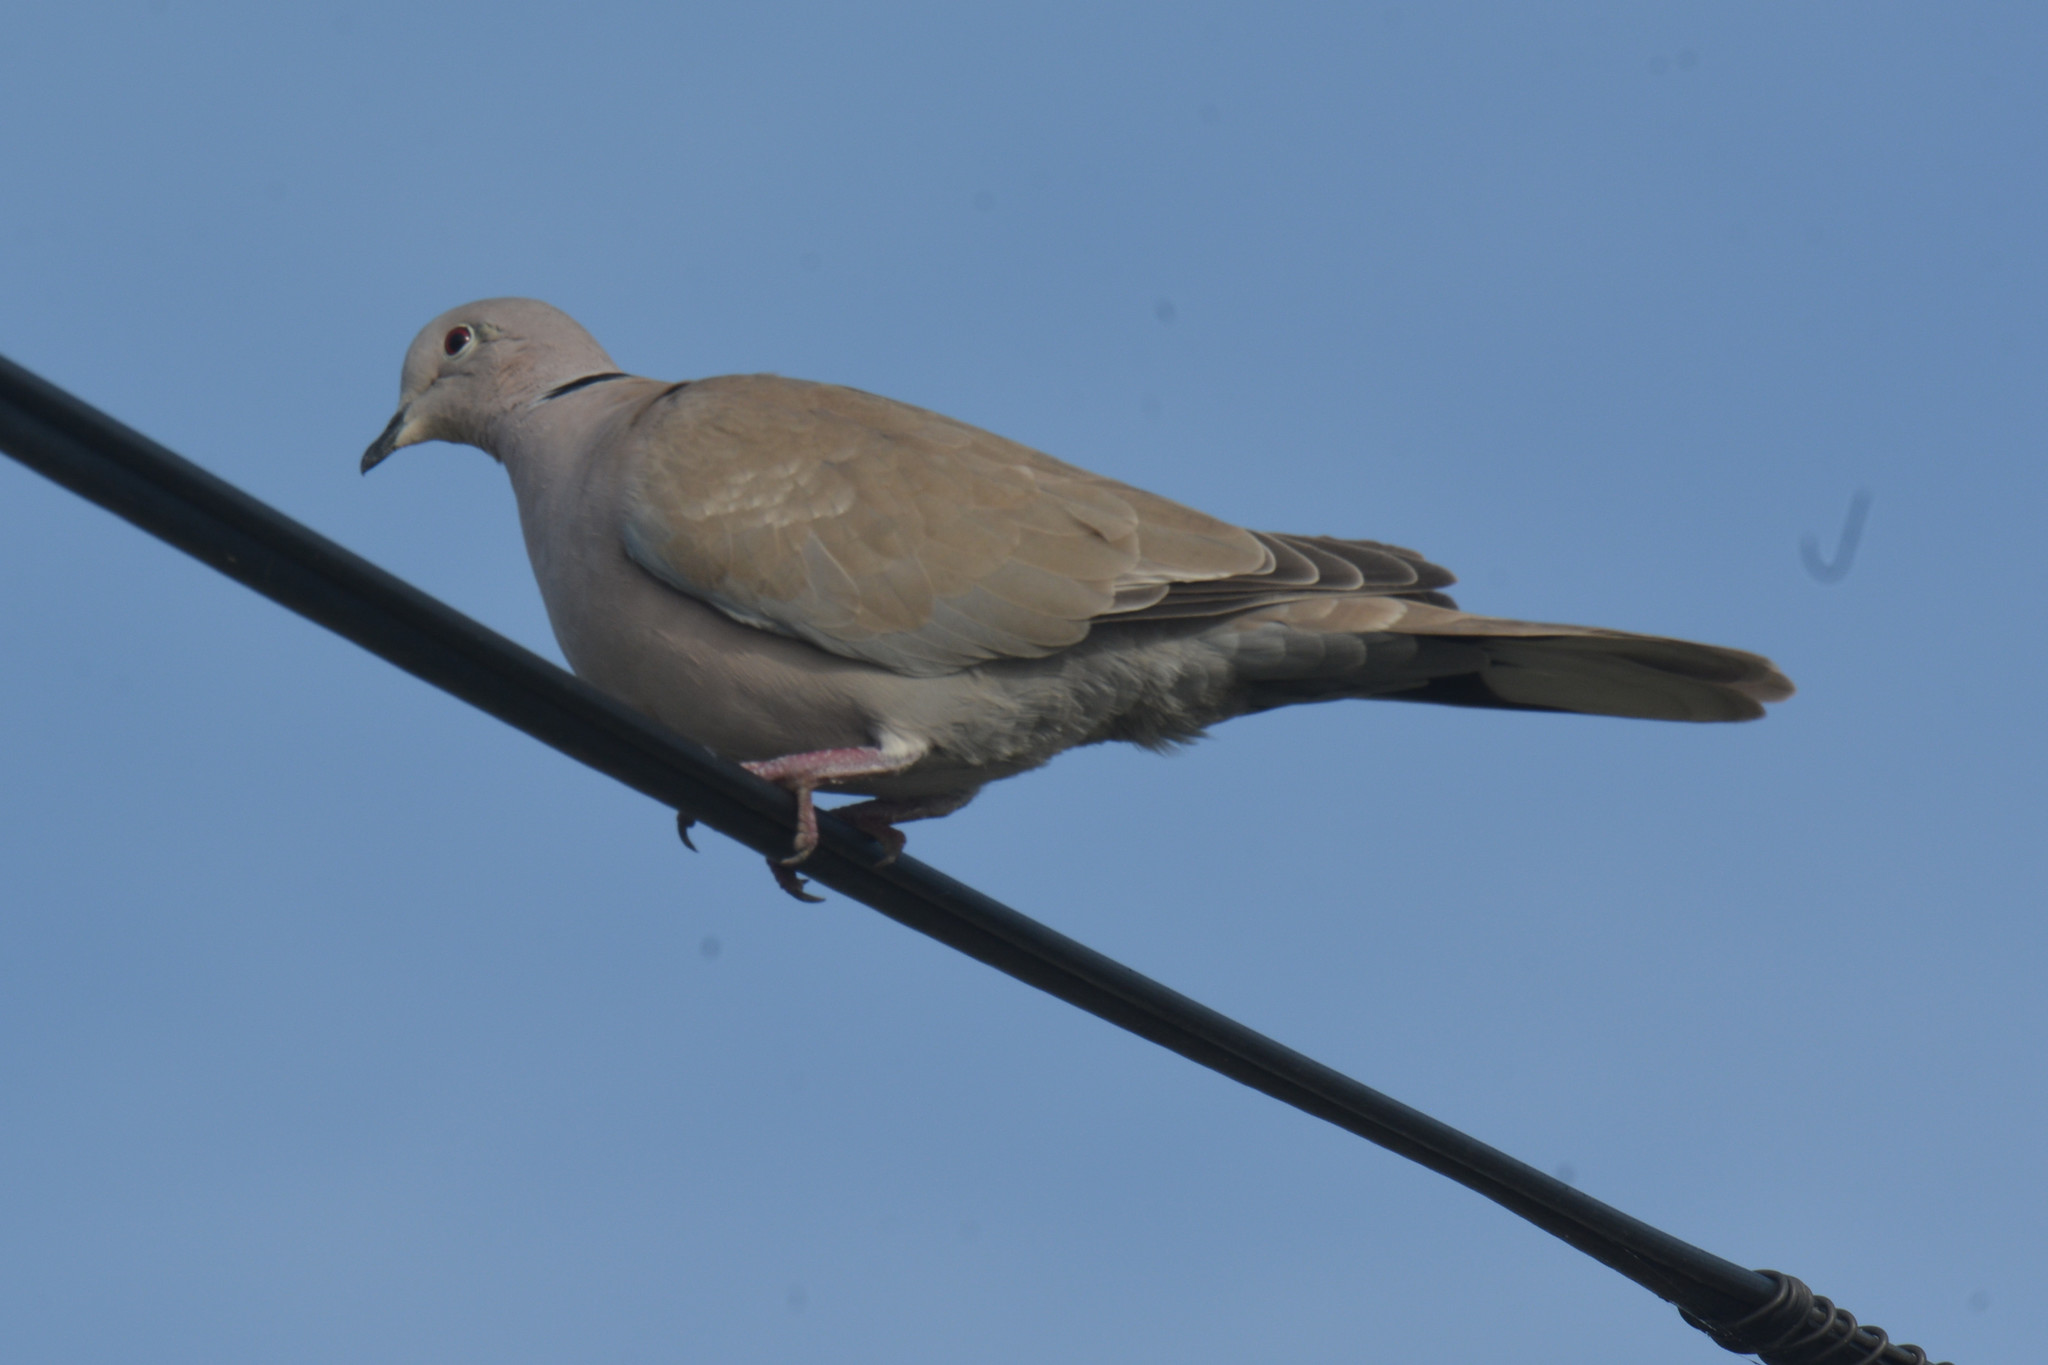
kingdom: Animalia
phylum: Chordata
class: Aves
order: Columbiformes
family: Columbidae
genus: Streptopelia
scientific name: Streptopelia decaocto
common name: Eurasian collared dove
